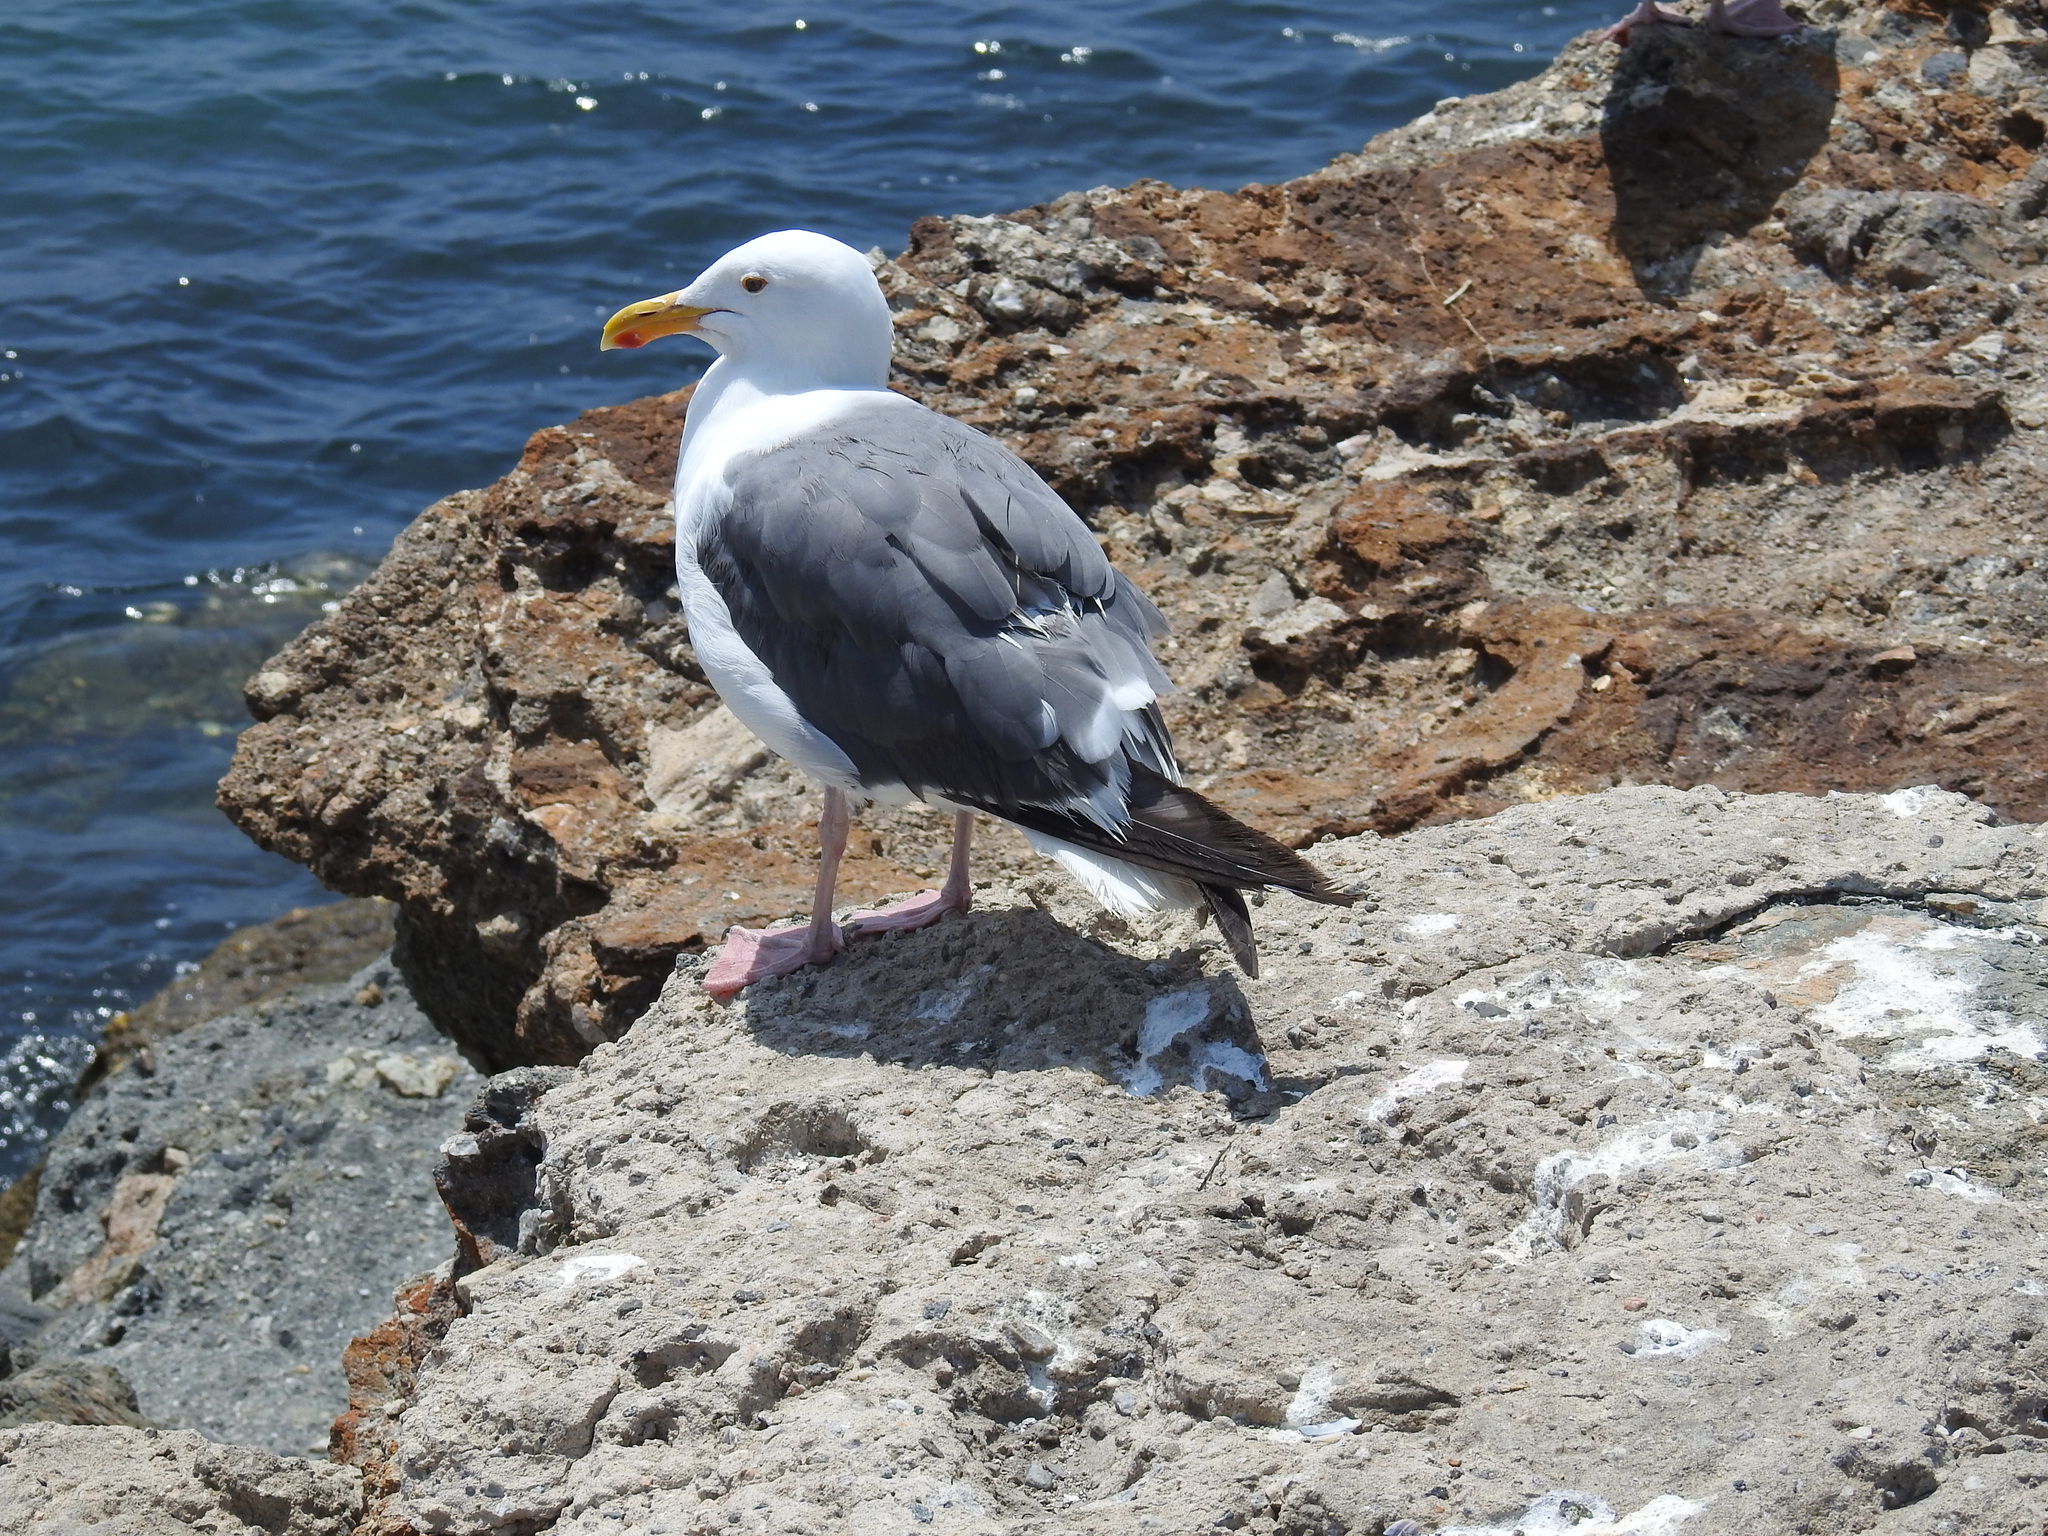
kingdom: Animalia
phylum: Chordata
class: Aves
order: Charadriiformes
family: Laridae
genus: Larus
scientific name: Larus occidentalis
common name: Western gull
